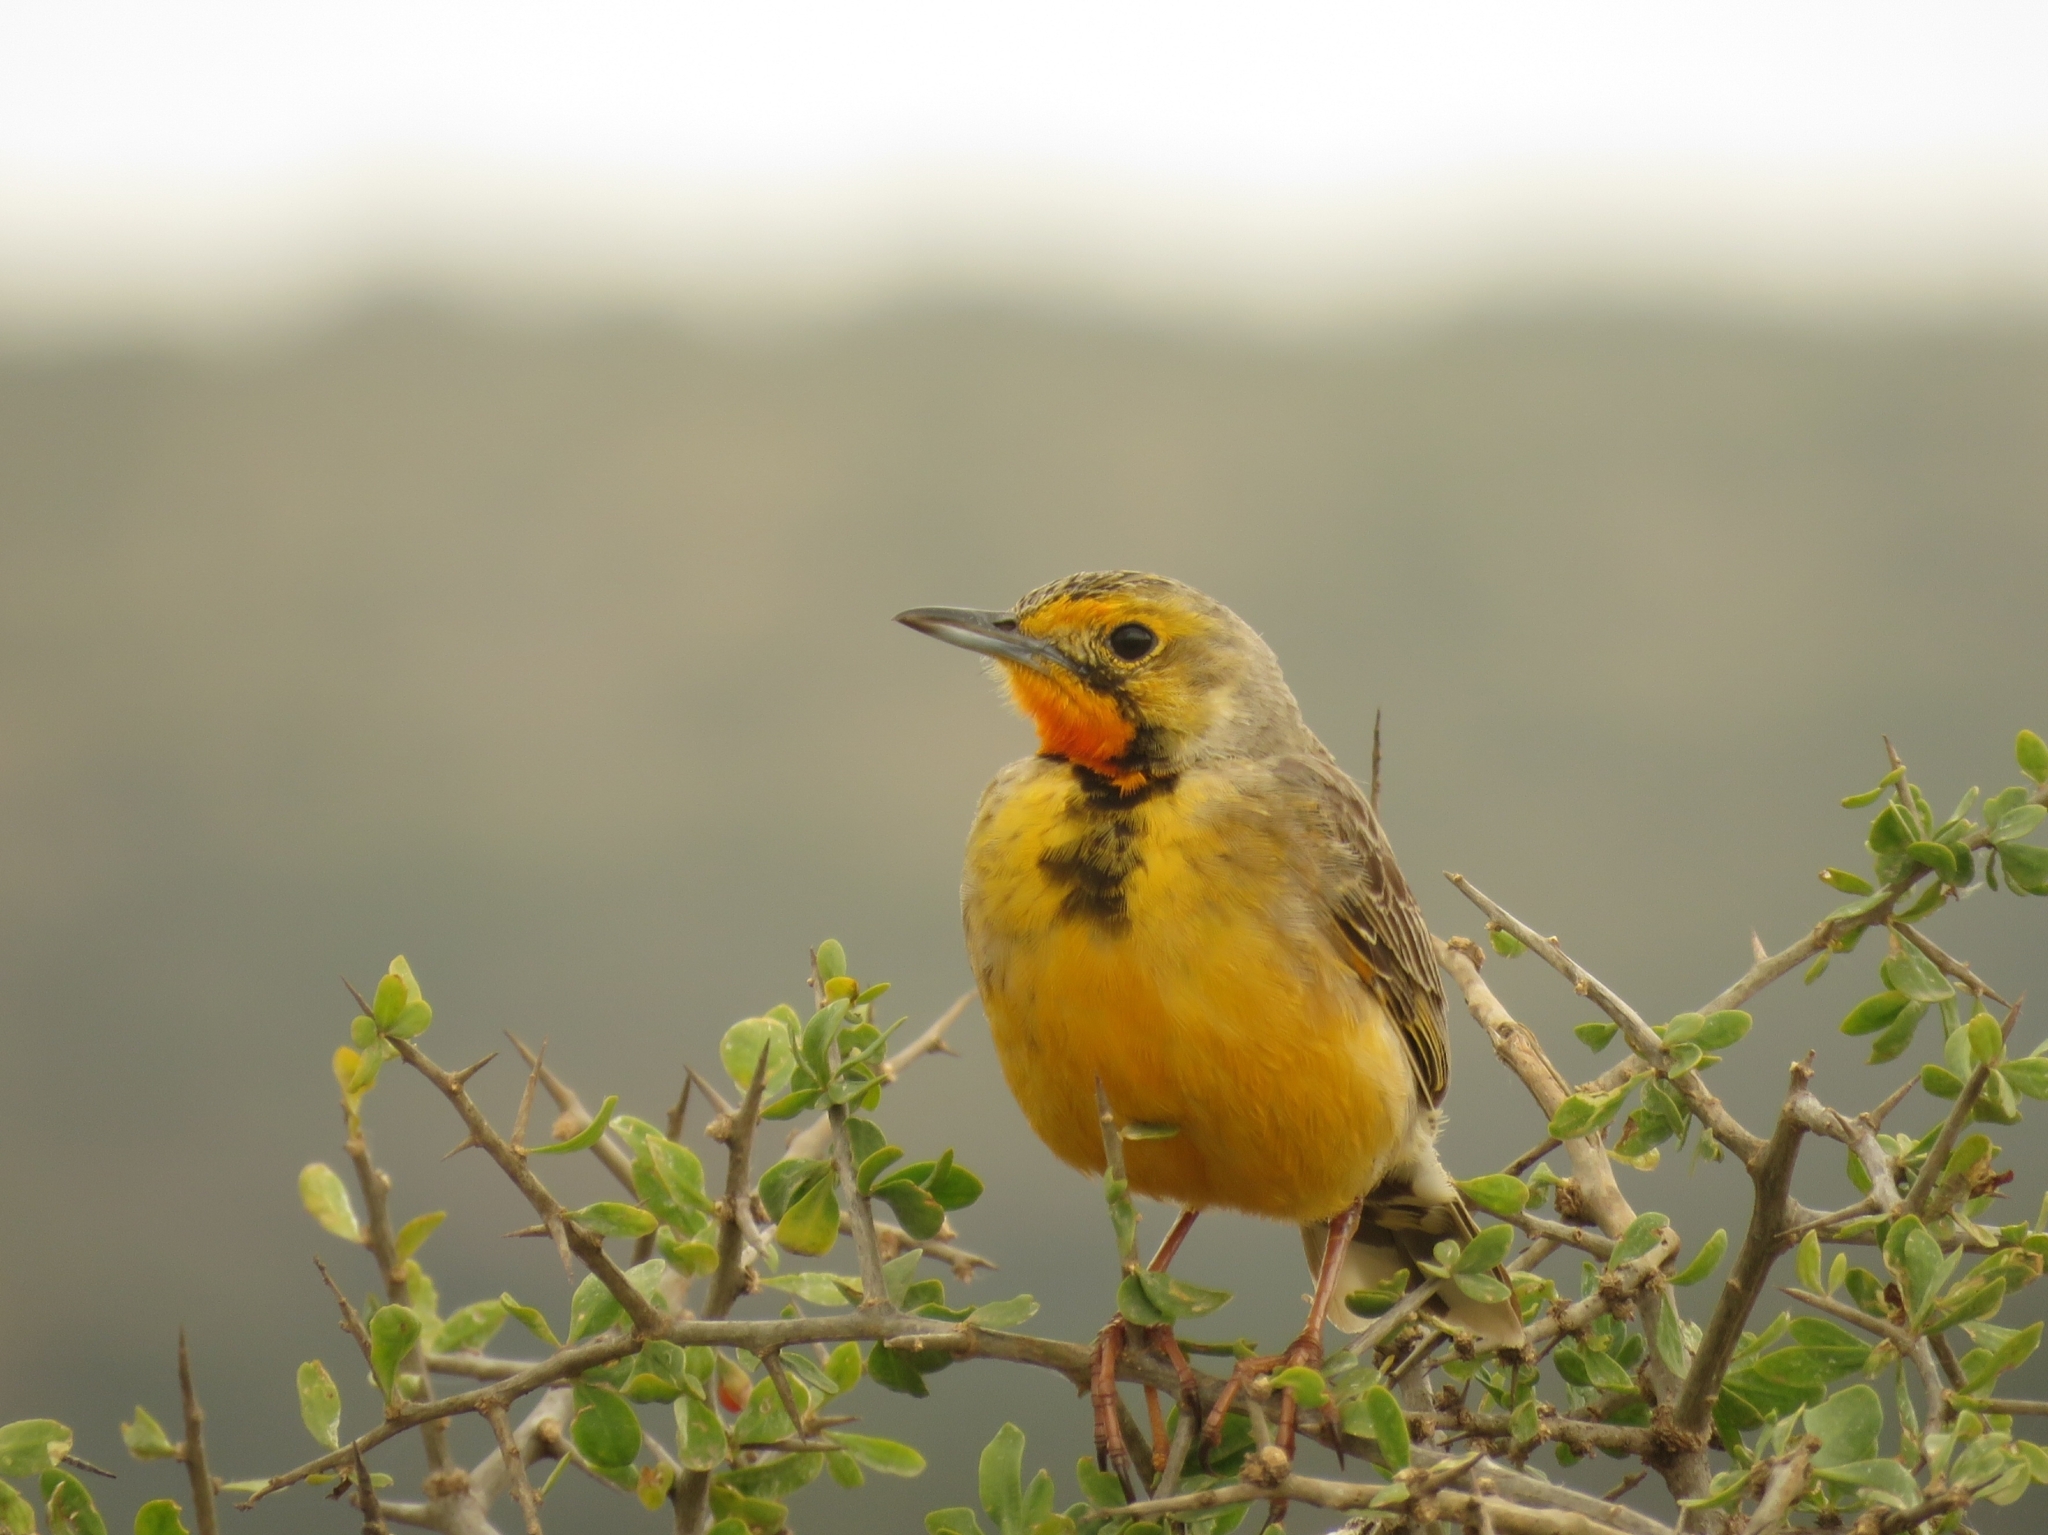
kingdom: Animalia
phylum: Chordata
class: Aves
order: Passeriformes
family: Motacillidae
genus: Macronyx
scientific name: Macronyx capensis
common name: Cape longclaw
